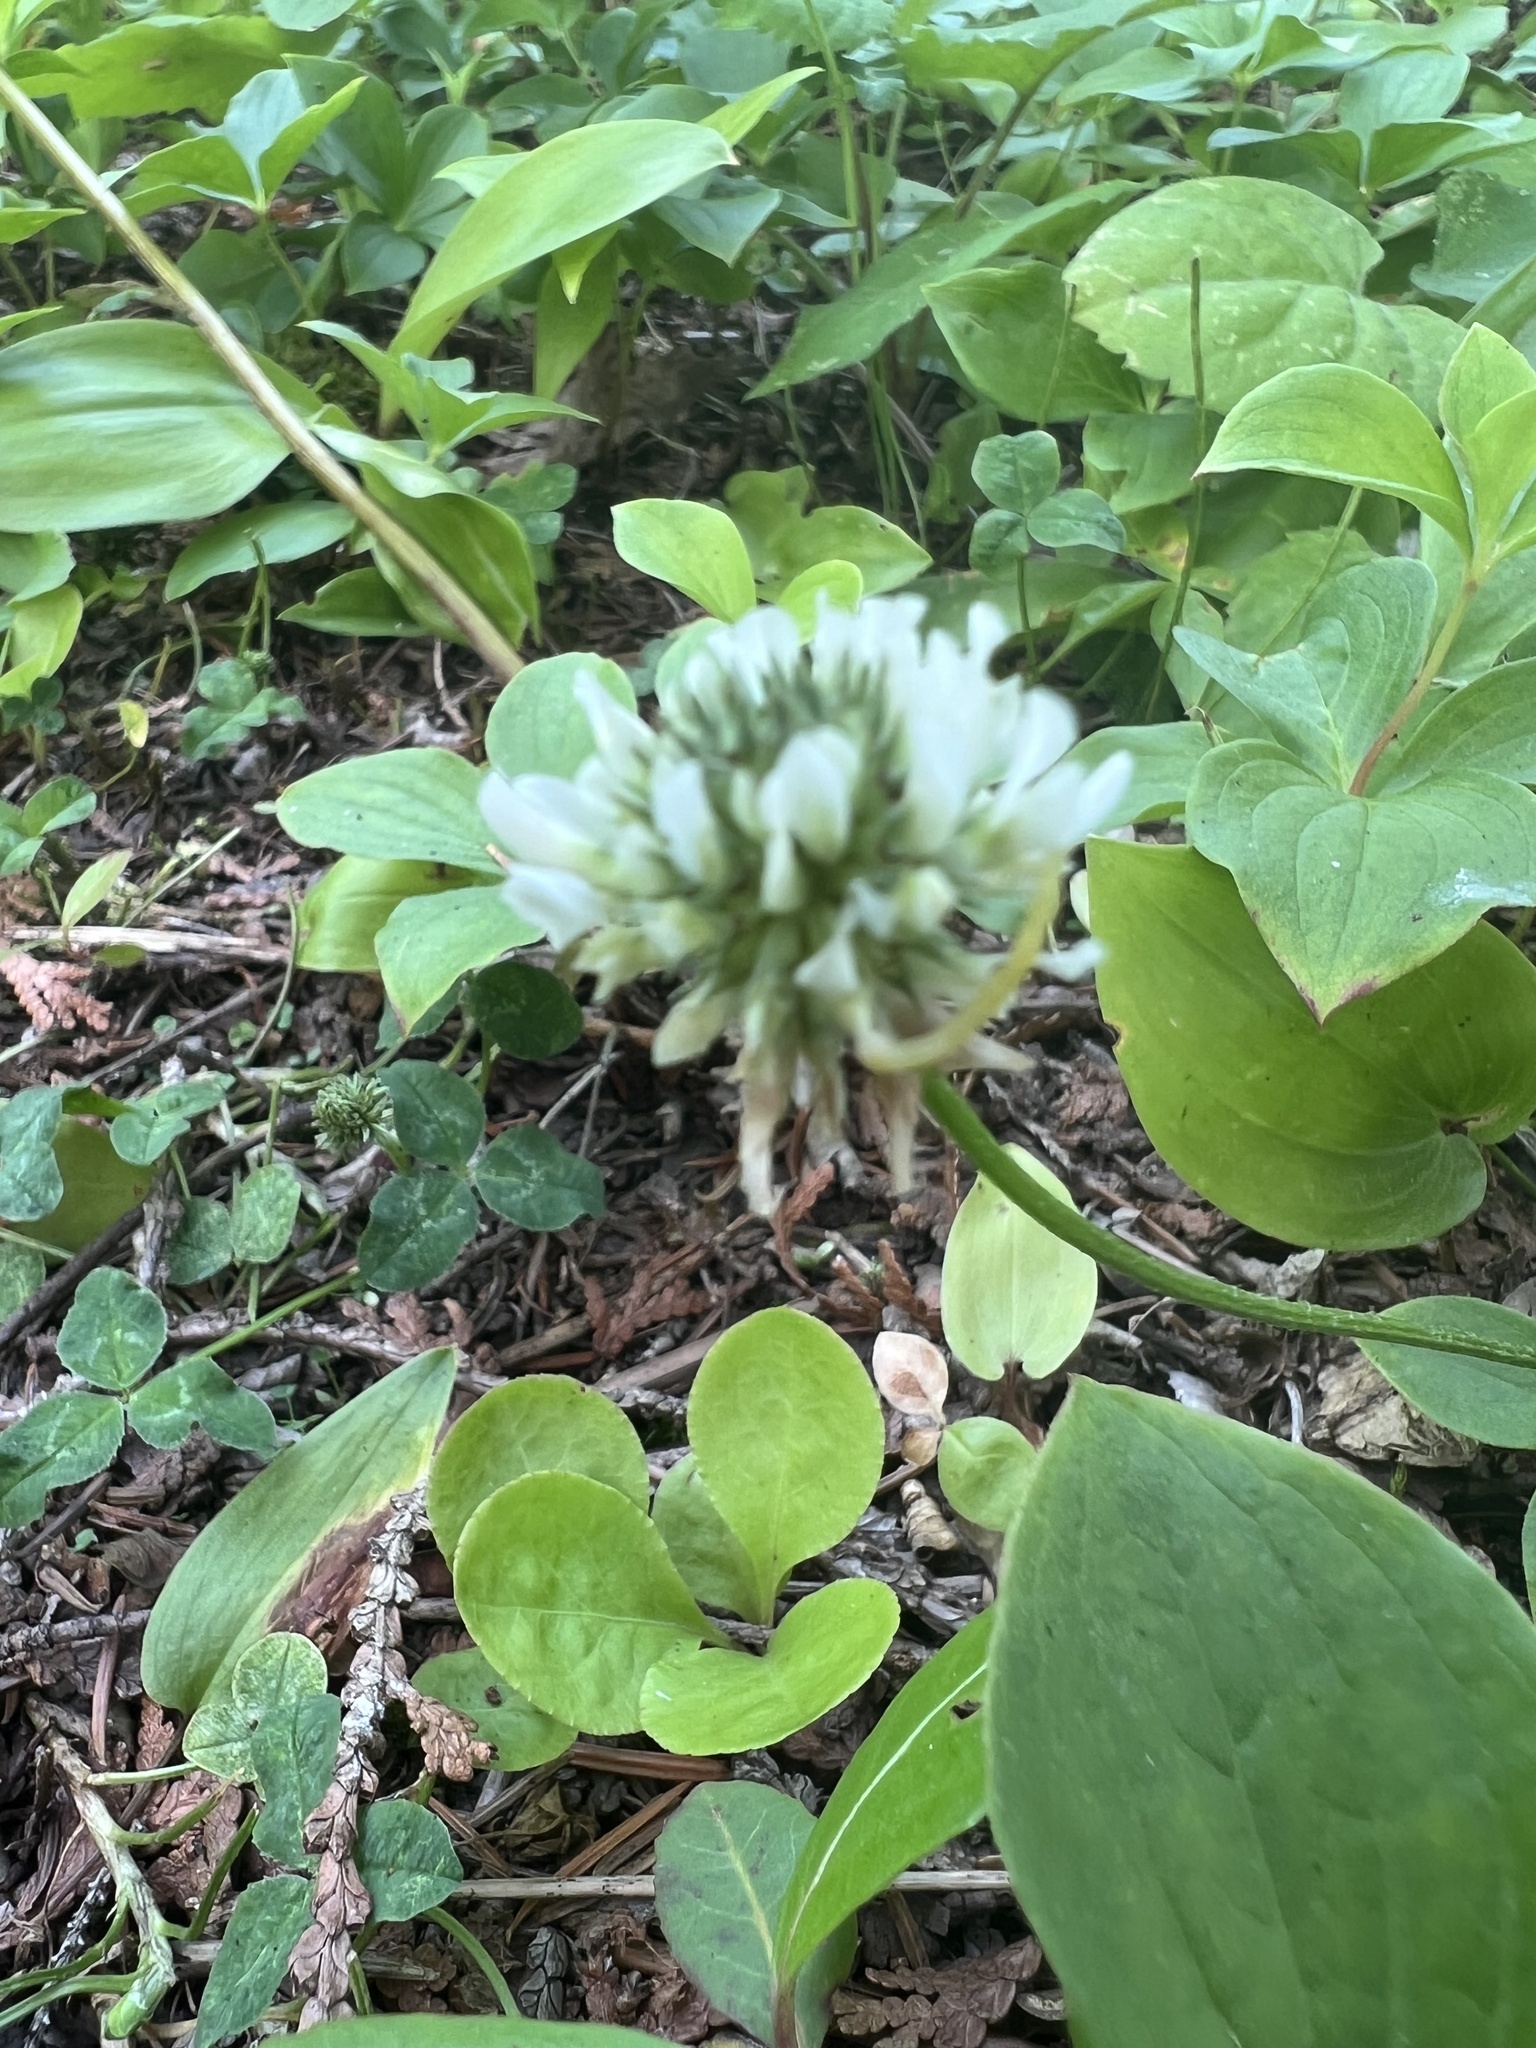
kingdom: Plantae
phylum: Tracheophyta
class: Magnoliopsida
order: Fabales
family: Fabaceae
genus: Trifolium
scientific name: Trifolium repens
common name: White clover
